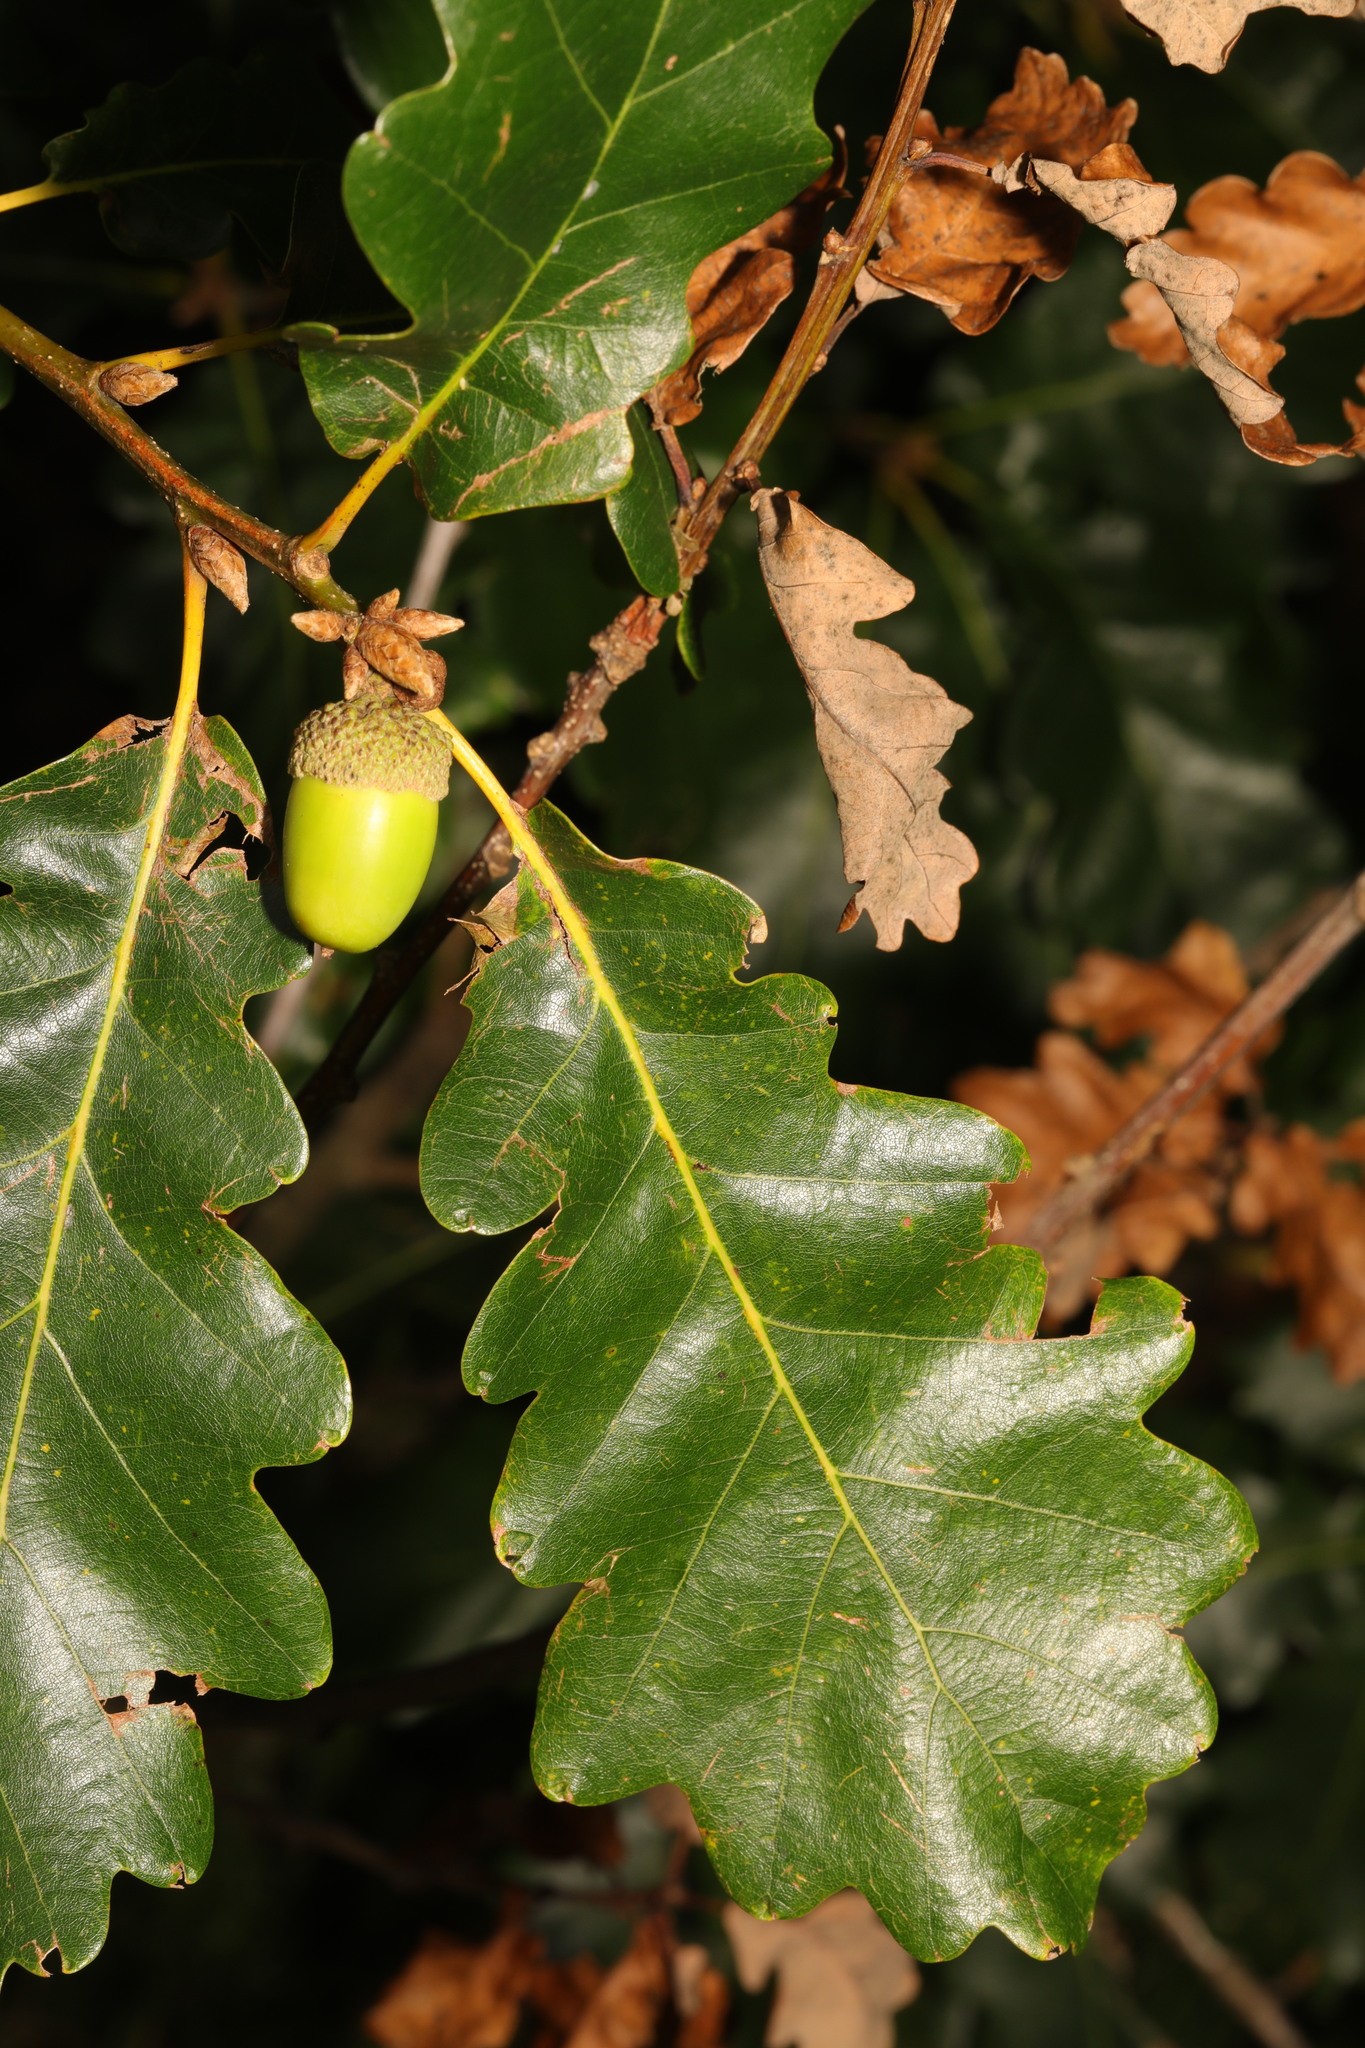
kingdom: Plantae
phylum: Tracheophyta
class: Magnoliopsida
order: Fagales
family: Fagaceae
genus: Quercus
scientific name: Quercus petraea
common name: Sessile oak
